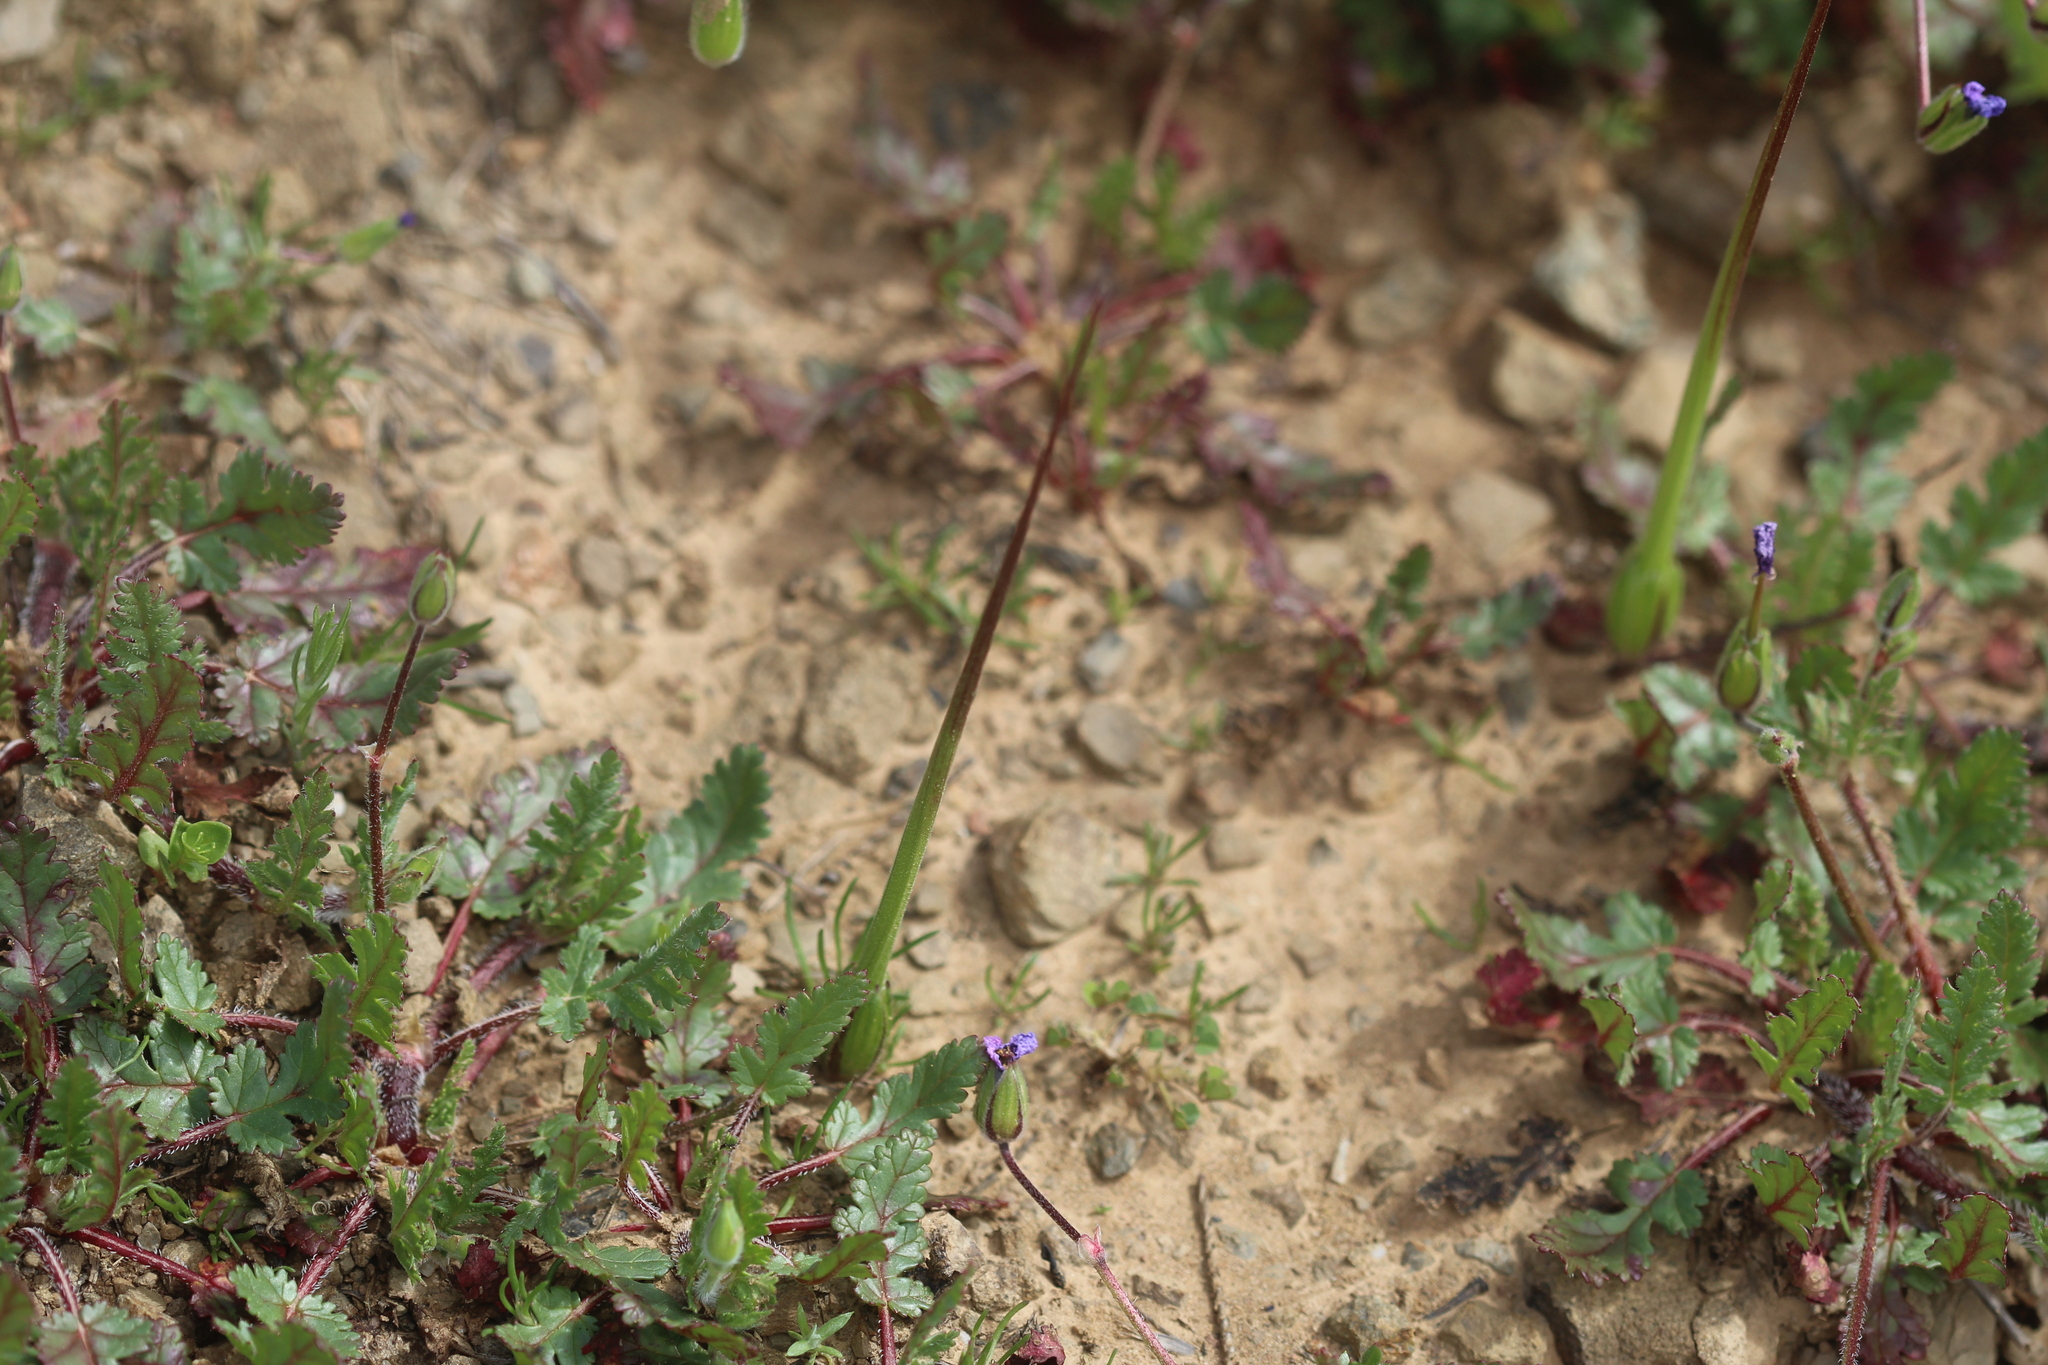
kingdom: Plantae
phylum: Tracheophyta
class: Magnoliopsida
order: Geraniales
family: Geraniaceae
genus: Erodium
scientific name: Erodium botrys
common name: Mediterranean stork's-bill
